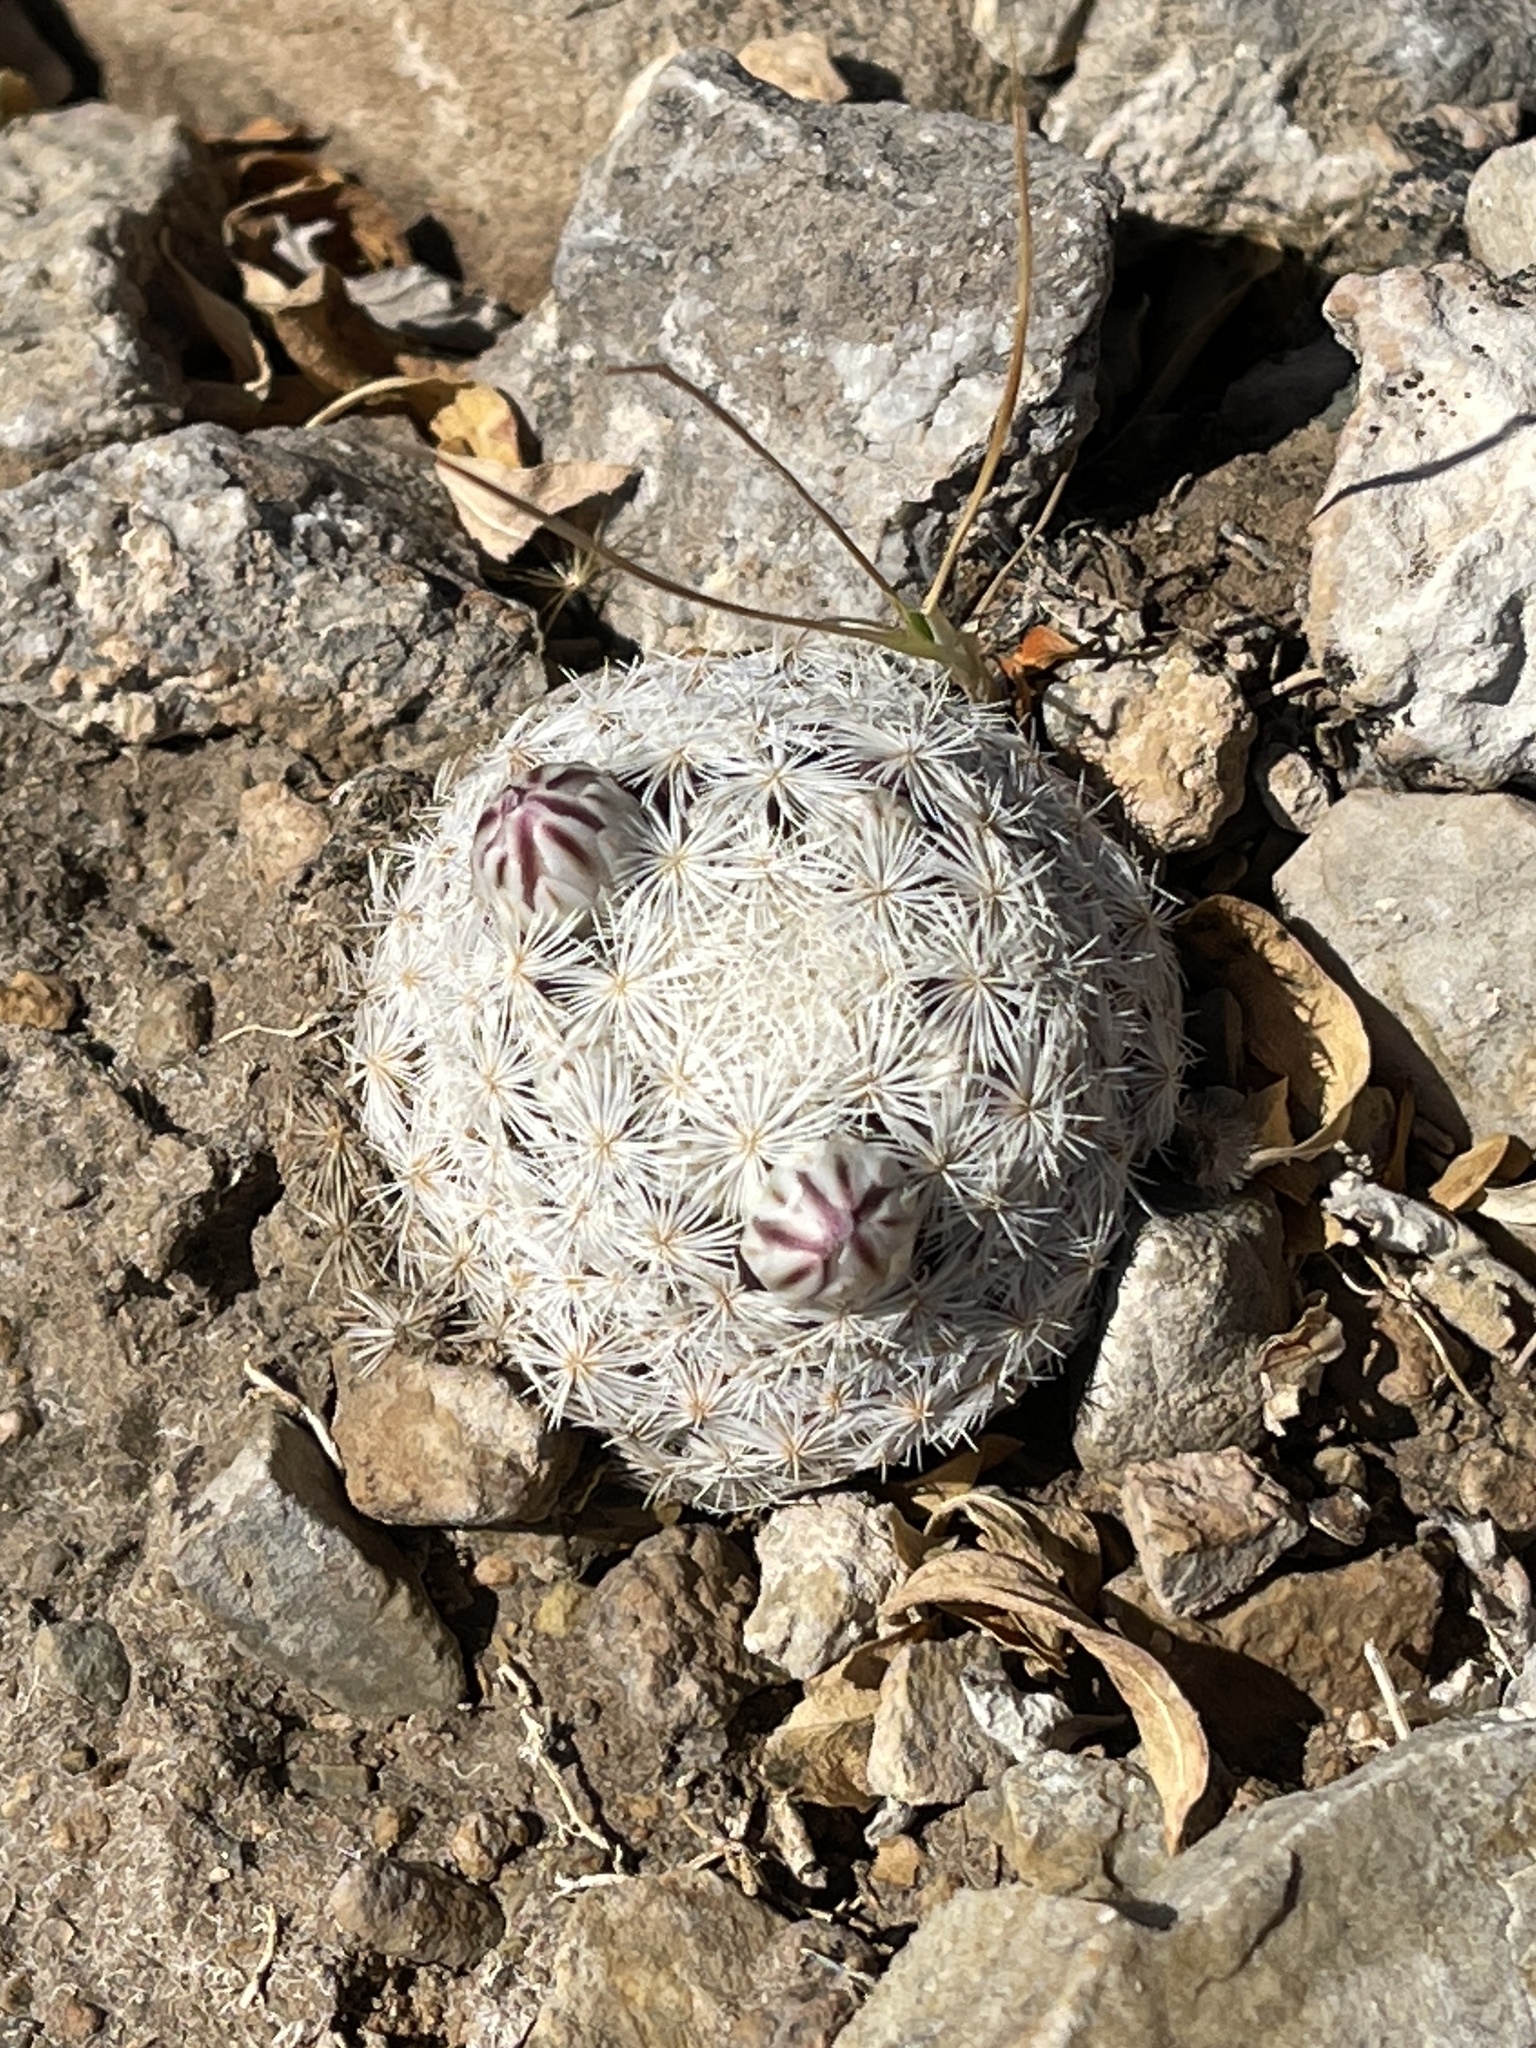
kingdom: Plantae
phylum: Tracheophyta
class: Magnoliopsida
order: Caryophyllales
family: Cactaceae
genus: Mammillaria
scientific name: Mammillaria lasiacantha
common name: Lace-spine nipple cactus
